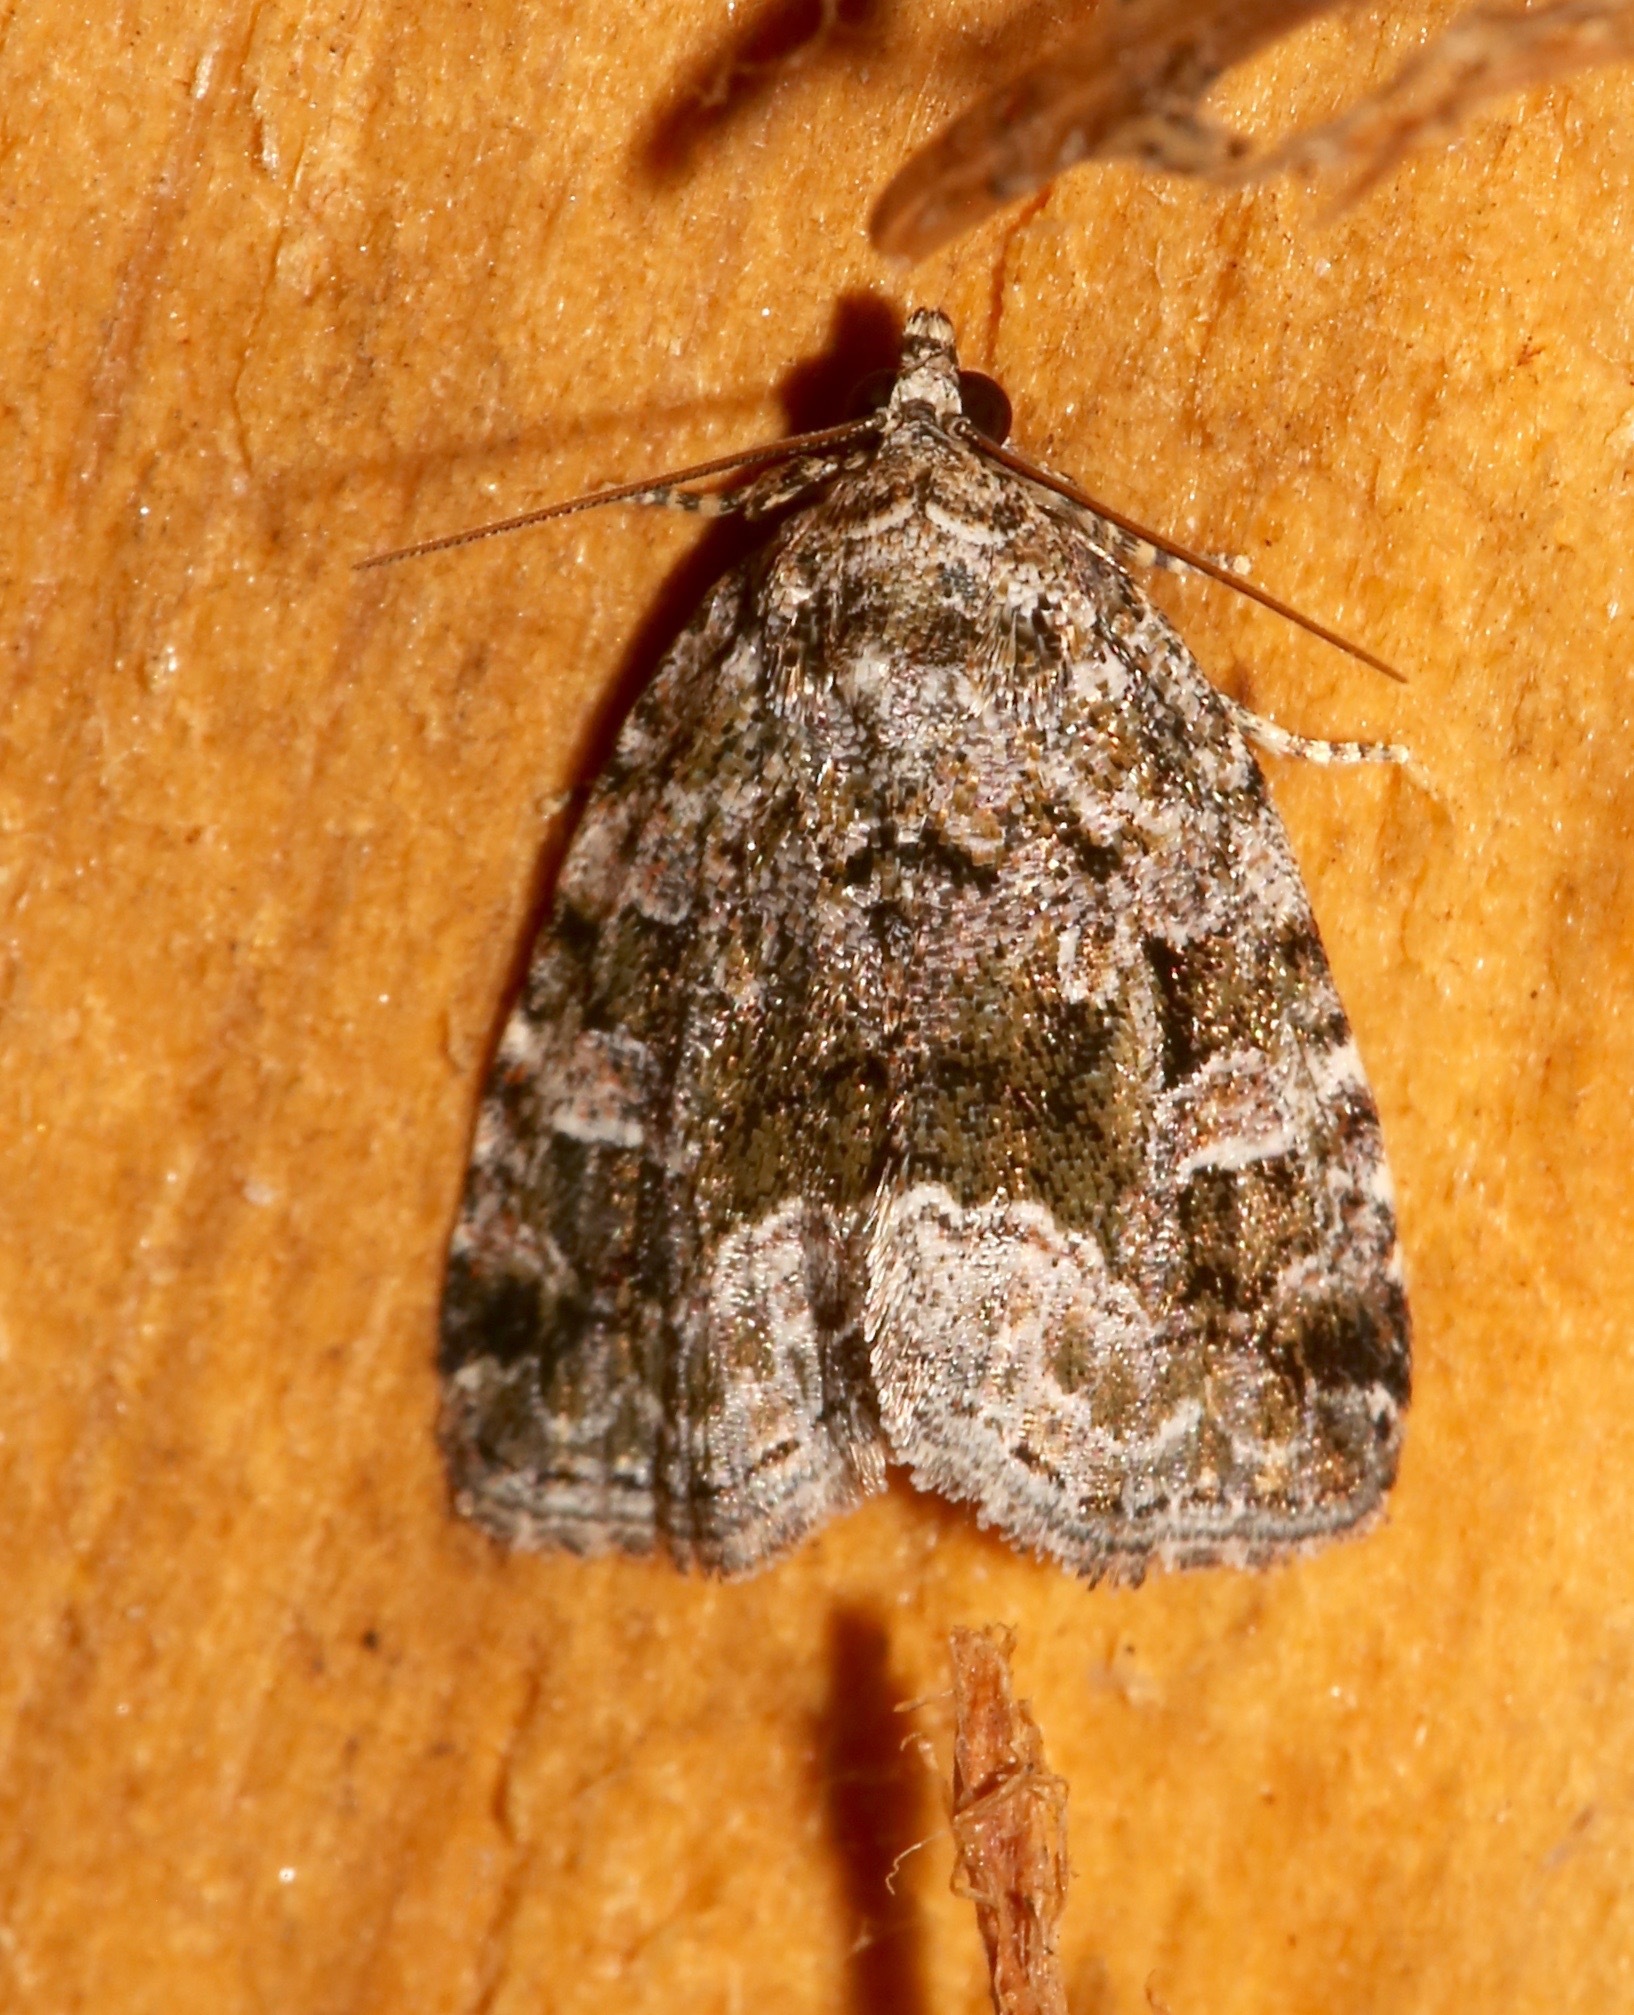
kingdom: Animalia
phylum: Arthropoda
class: Insecta
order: Lepidoptera
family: Noctuidae
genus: Protodeltote
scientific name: Protodeltote muscosula
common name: Large mossy glyph
